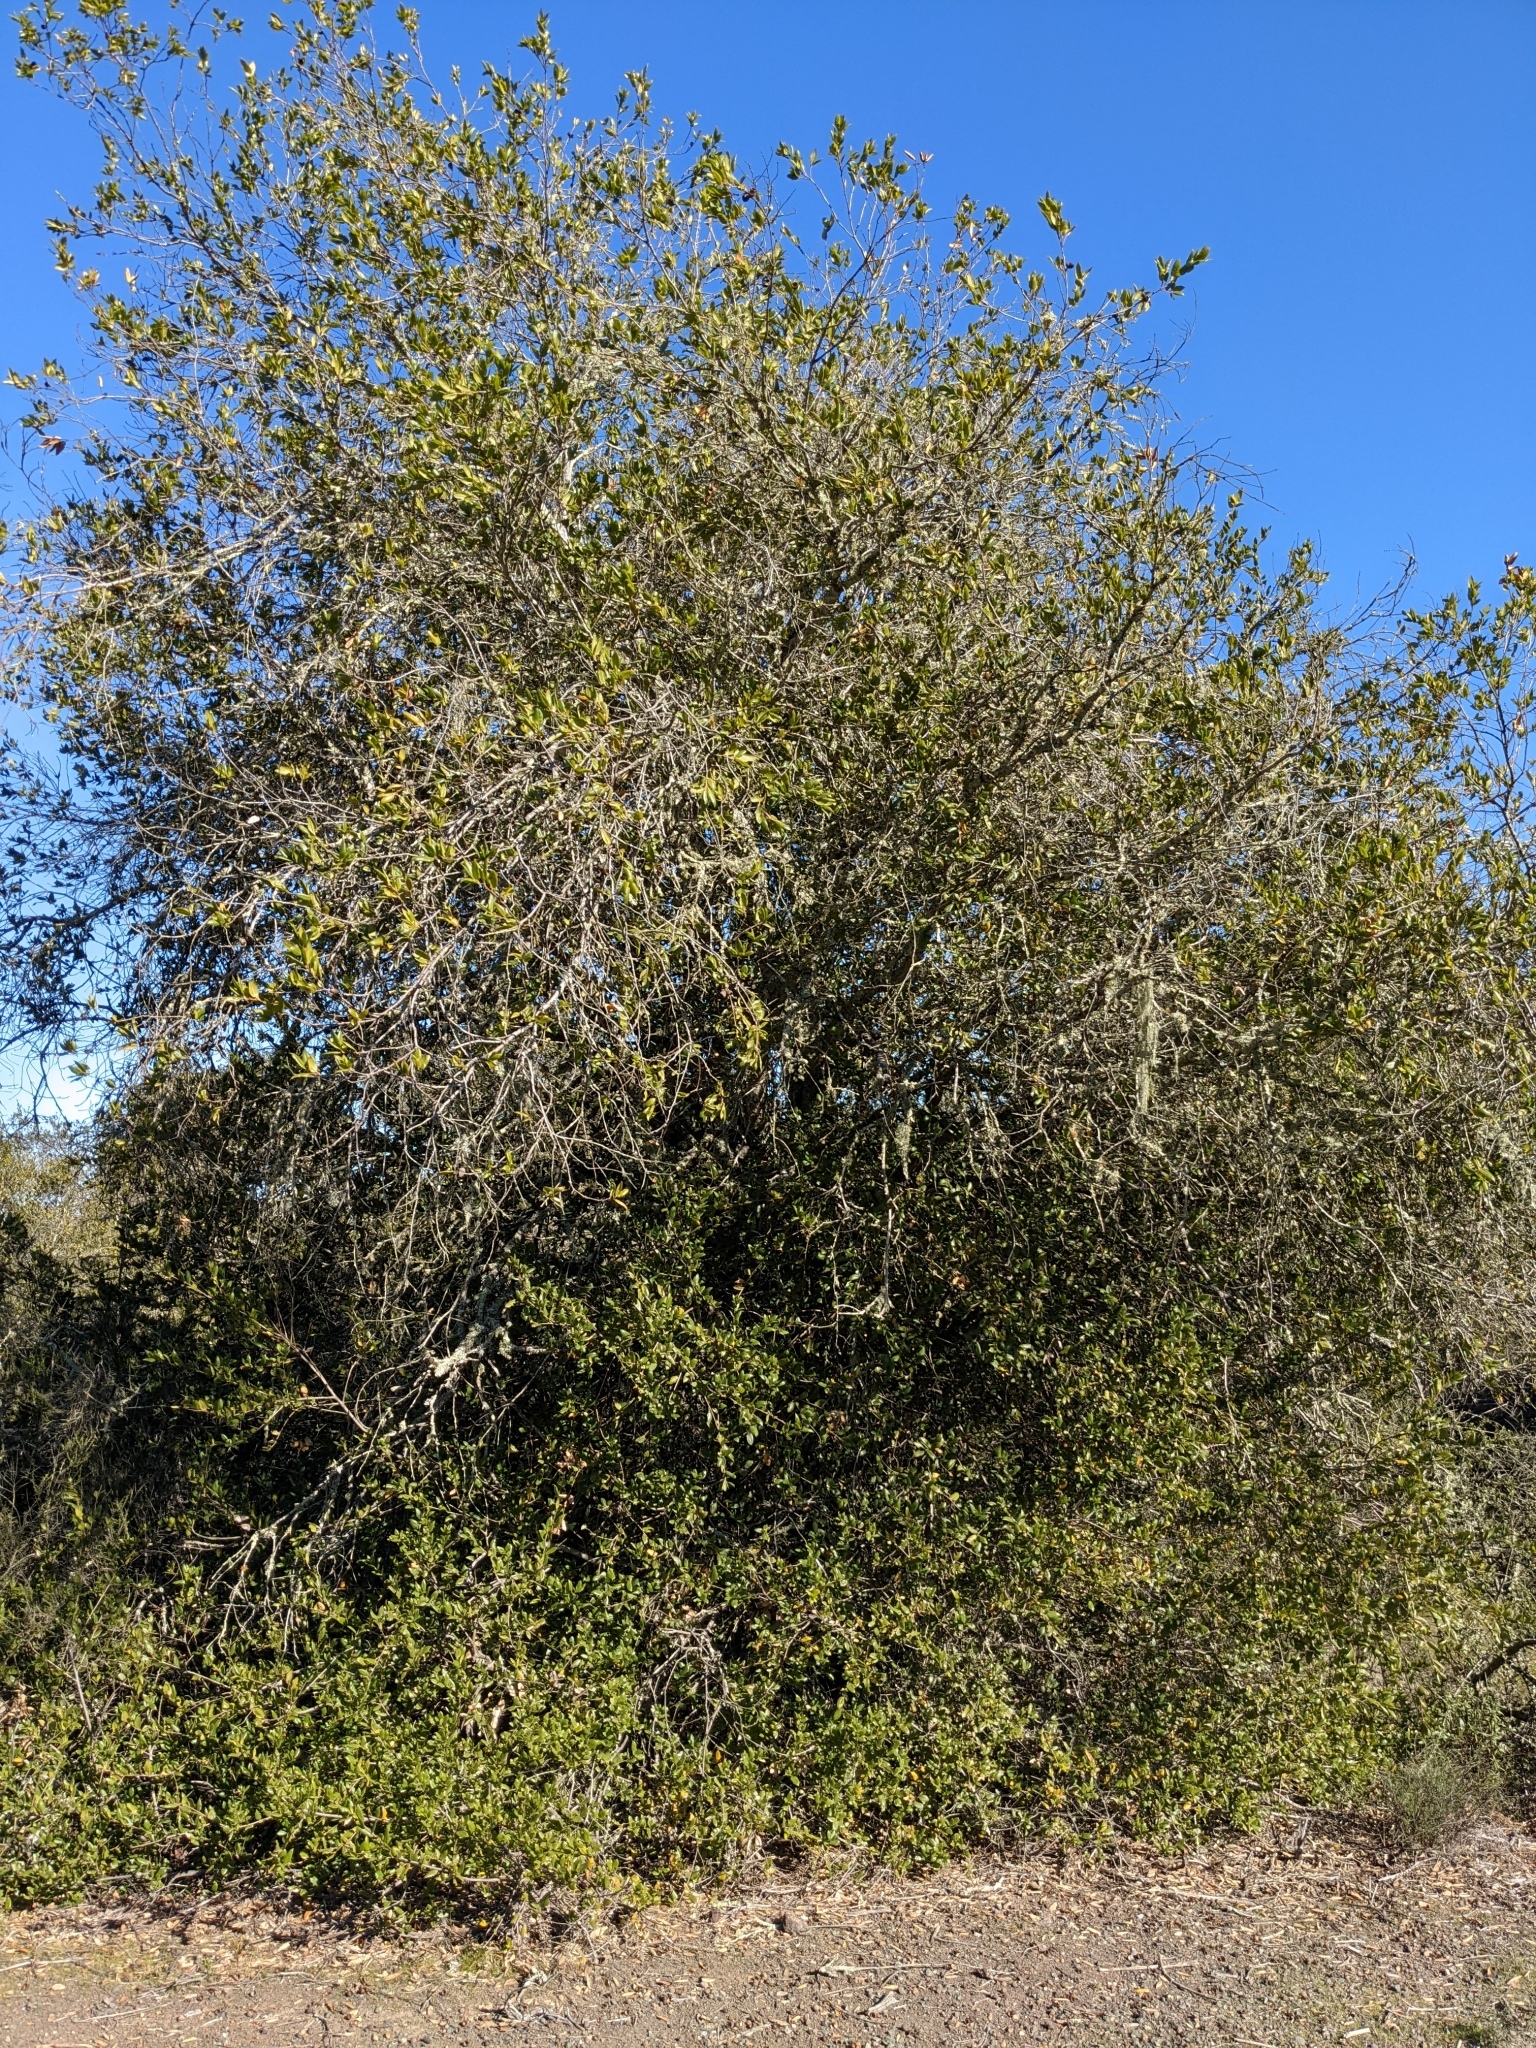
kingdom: Plantae
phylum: Tracheophyta
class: Magnoliopsida
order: Fagales
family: Fagaceae
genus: Quercus
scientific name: Quercus parvula
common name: Santa cruz island oak
